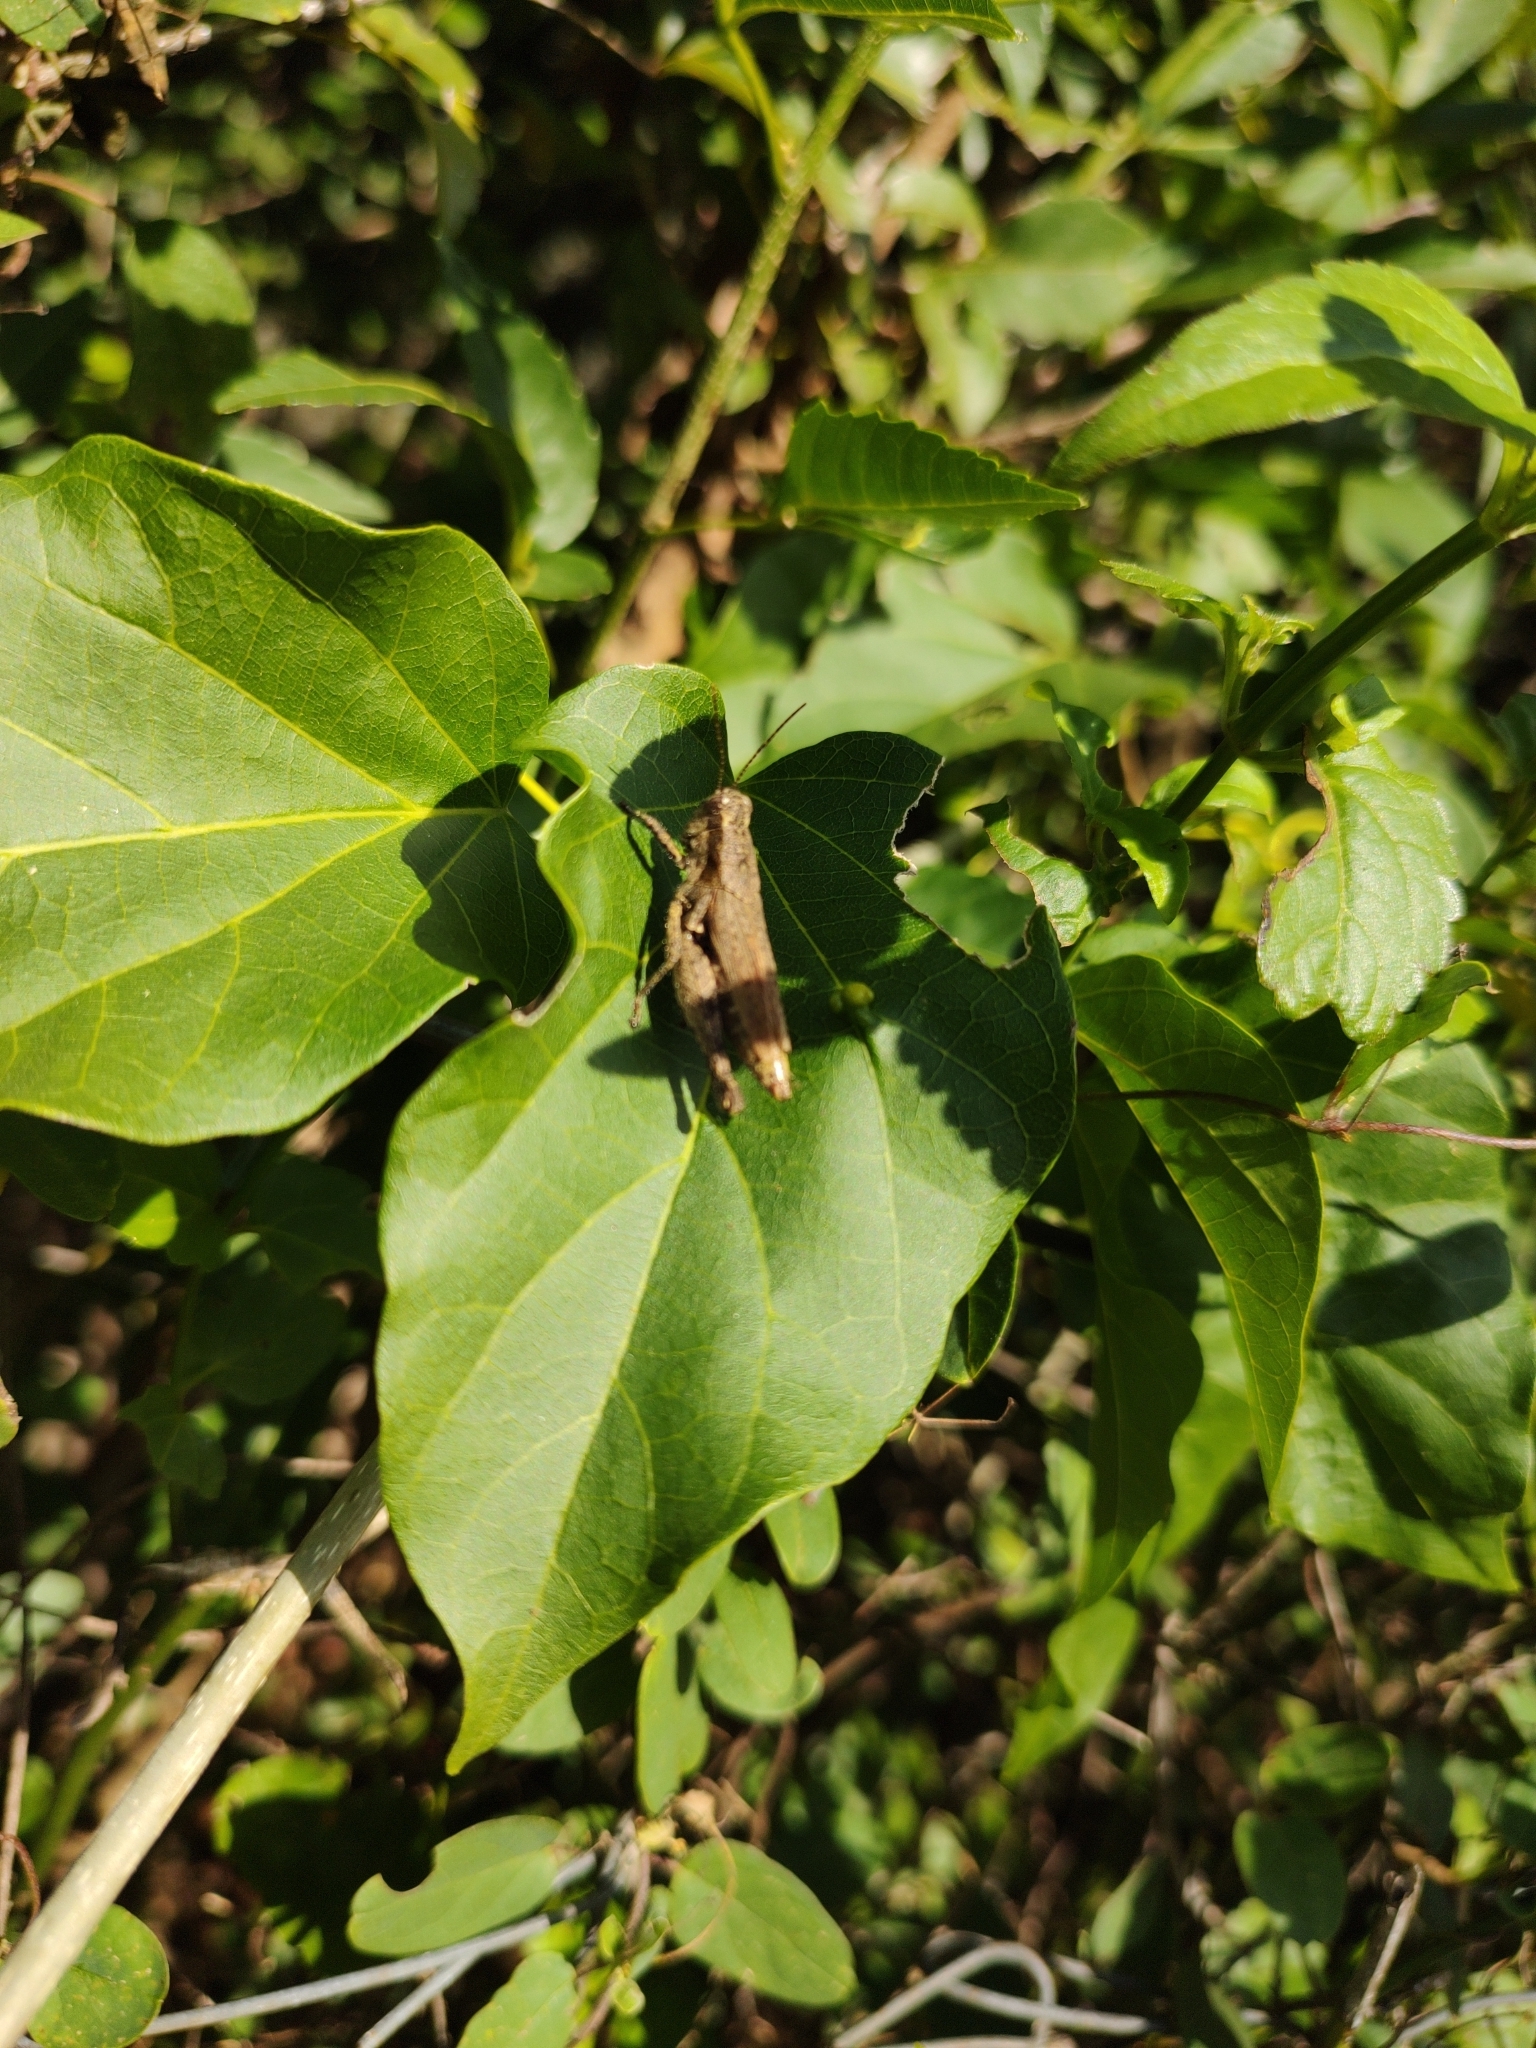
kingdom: Animalia
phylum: Arthropoda
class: Insecta
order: Orthoptera
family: Acrididae
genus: Ronderosia
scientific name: Ronderosia bergii
